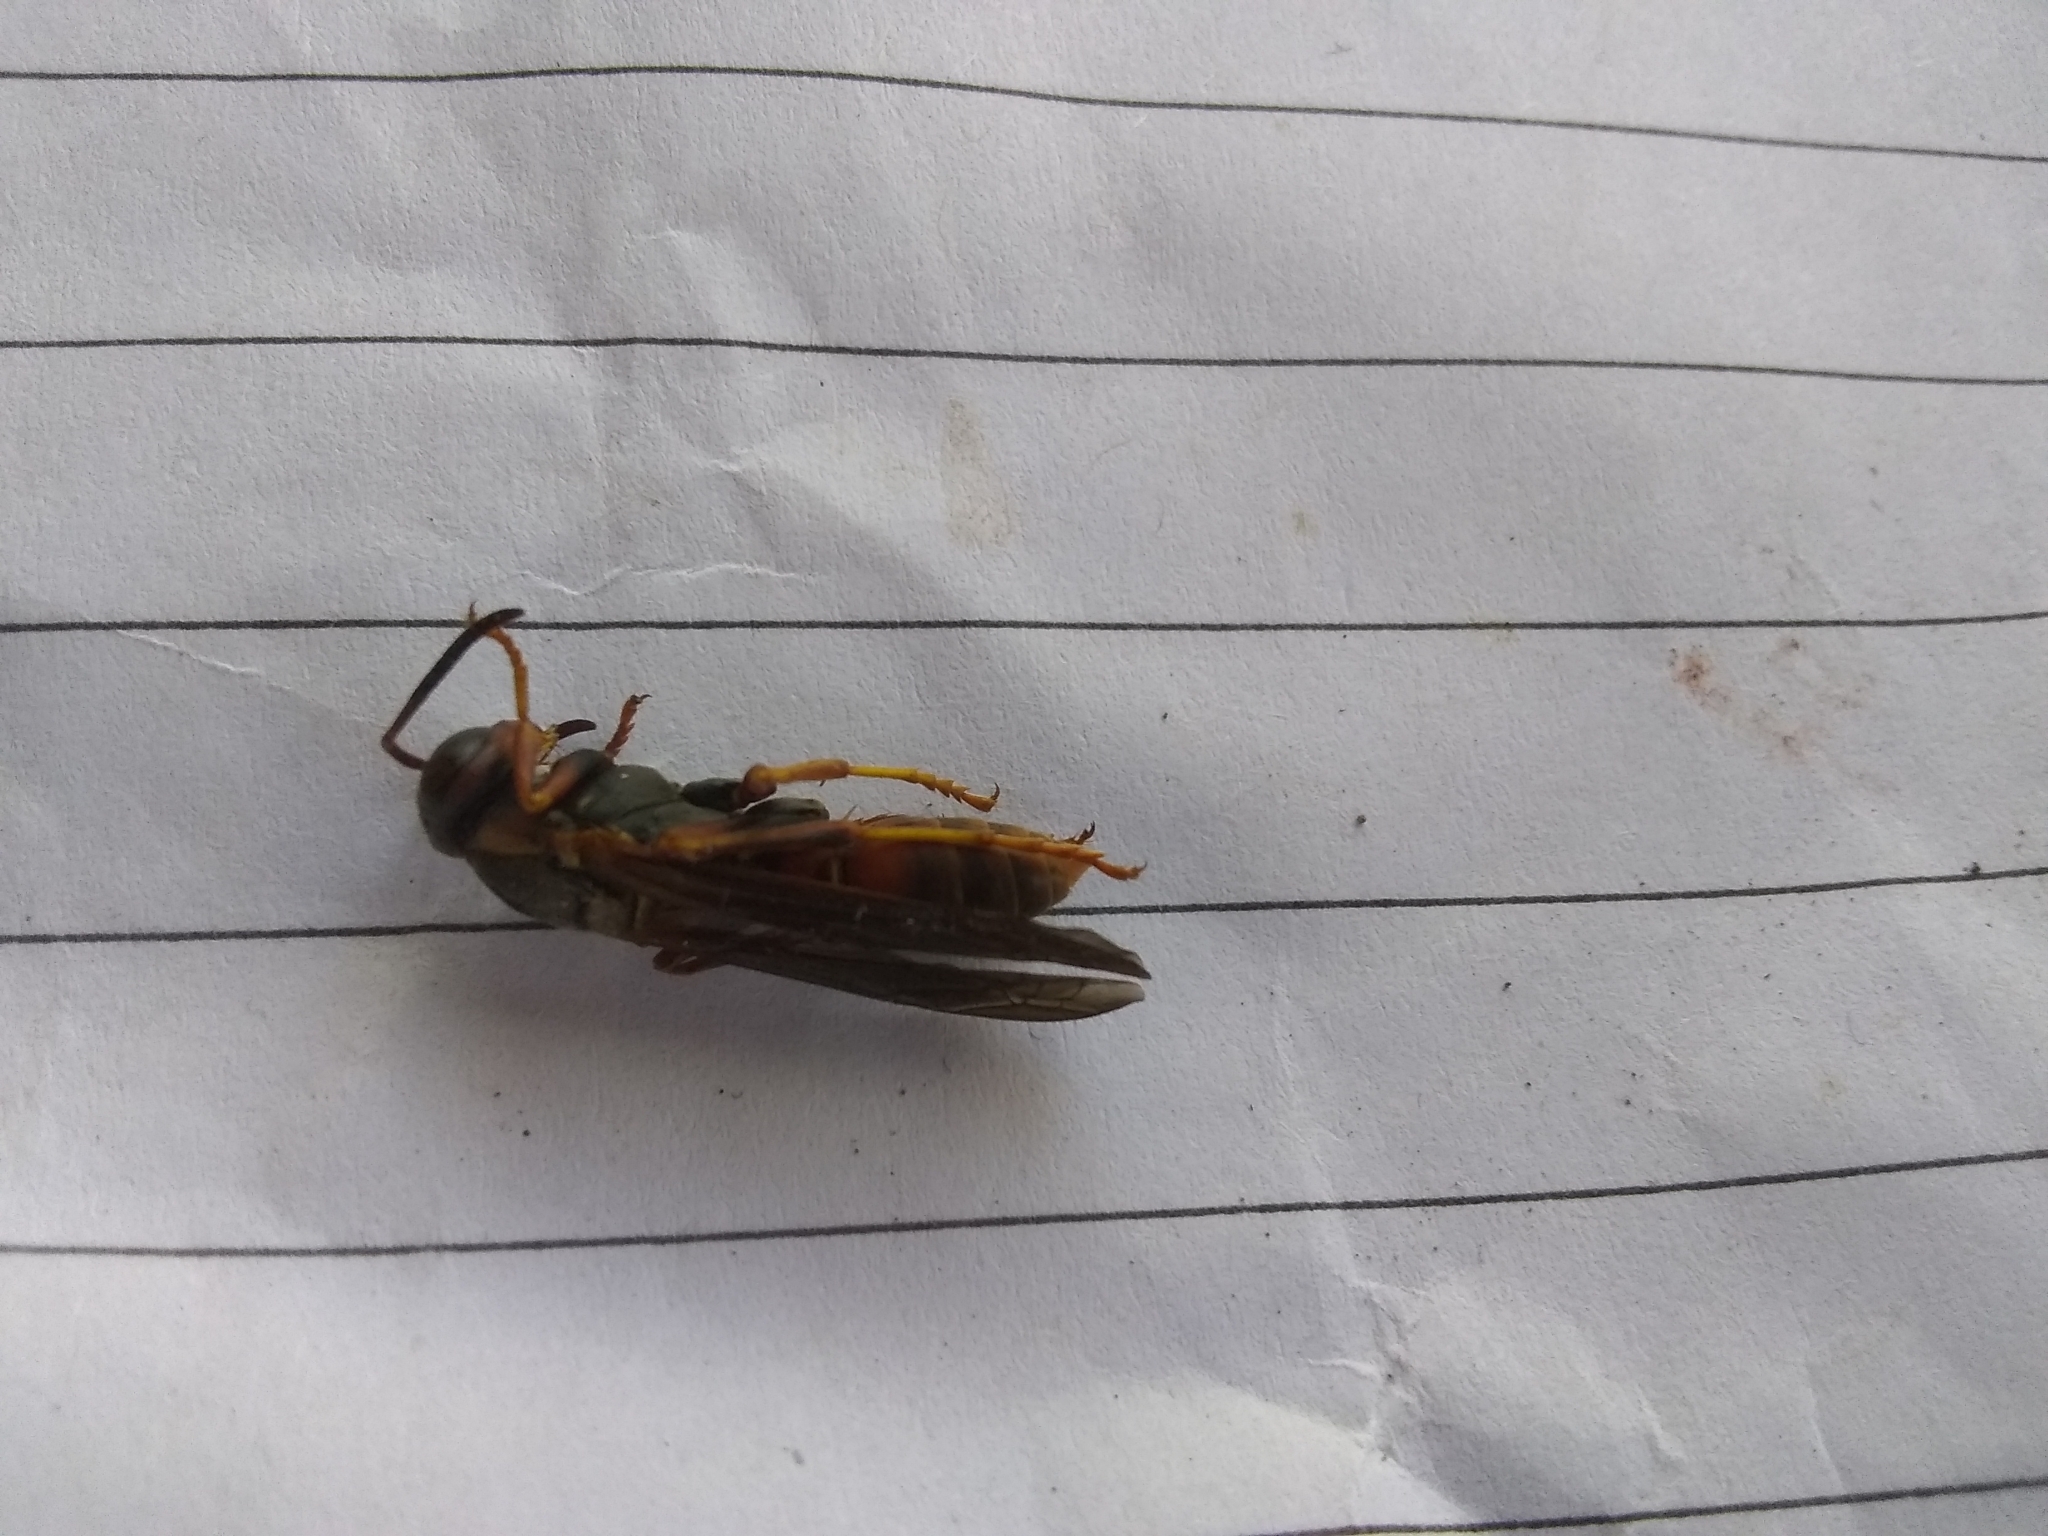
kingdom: Animalia
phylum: Arthropoda
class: Insecta
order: Hymenoptera
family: Eumenidae
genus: Polistes
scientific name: Polistes fuscatus
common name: Dark paper wasp
